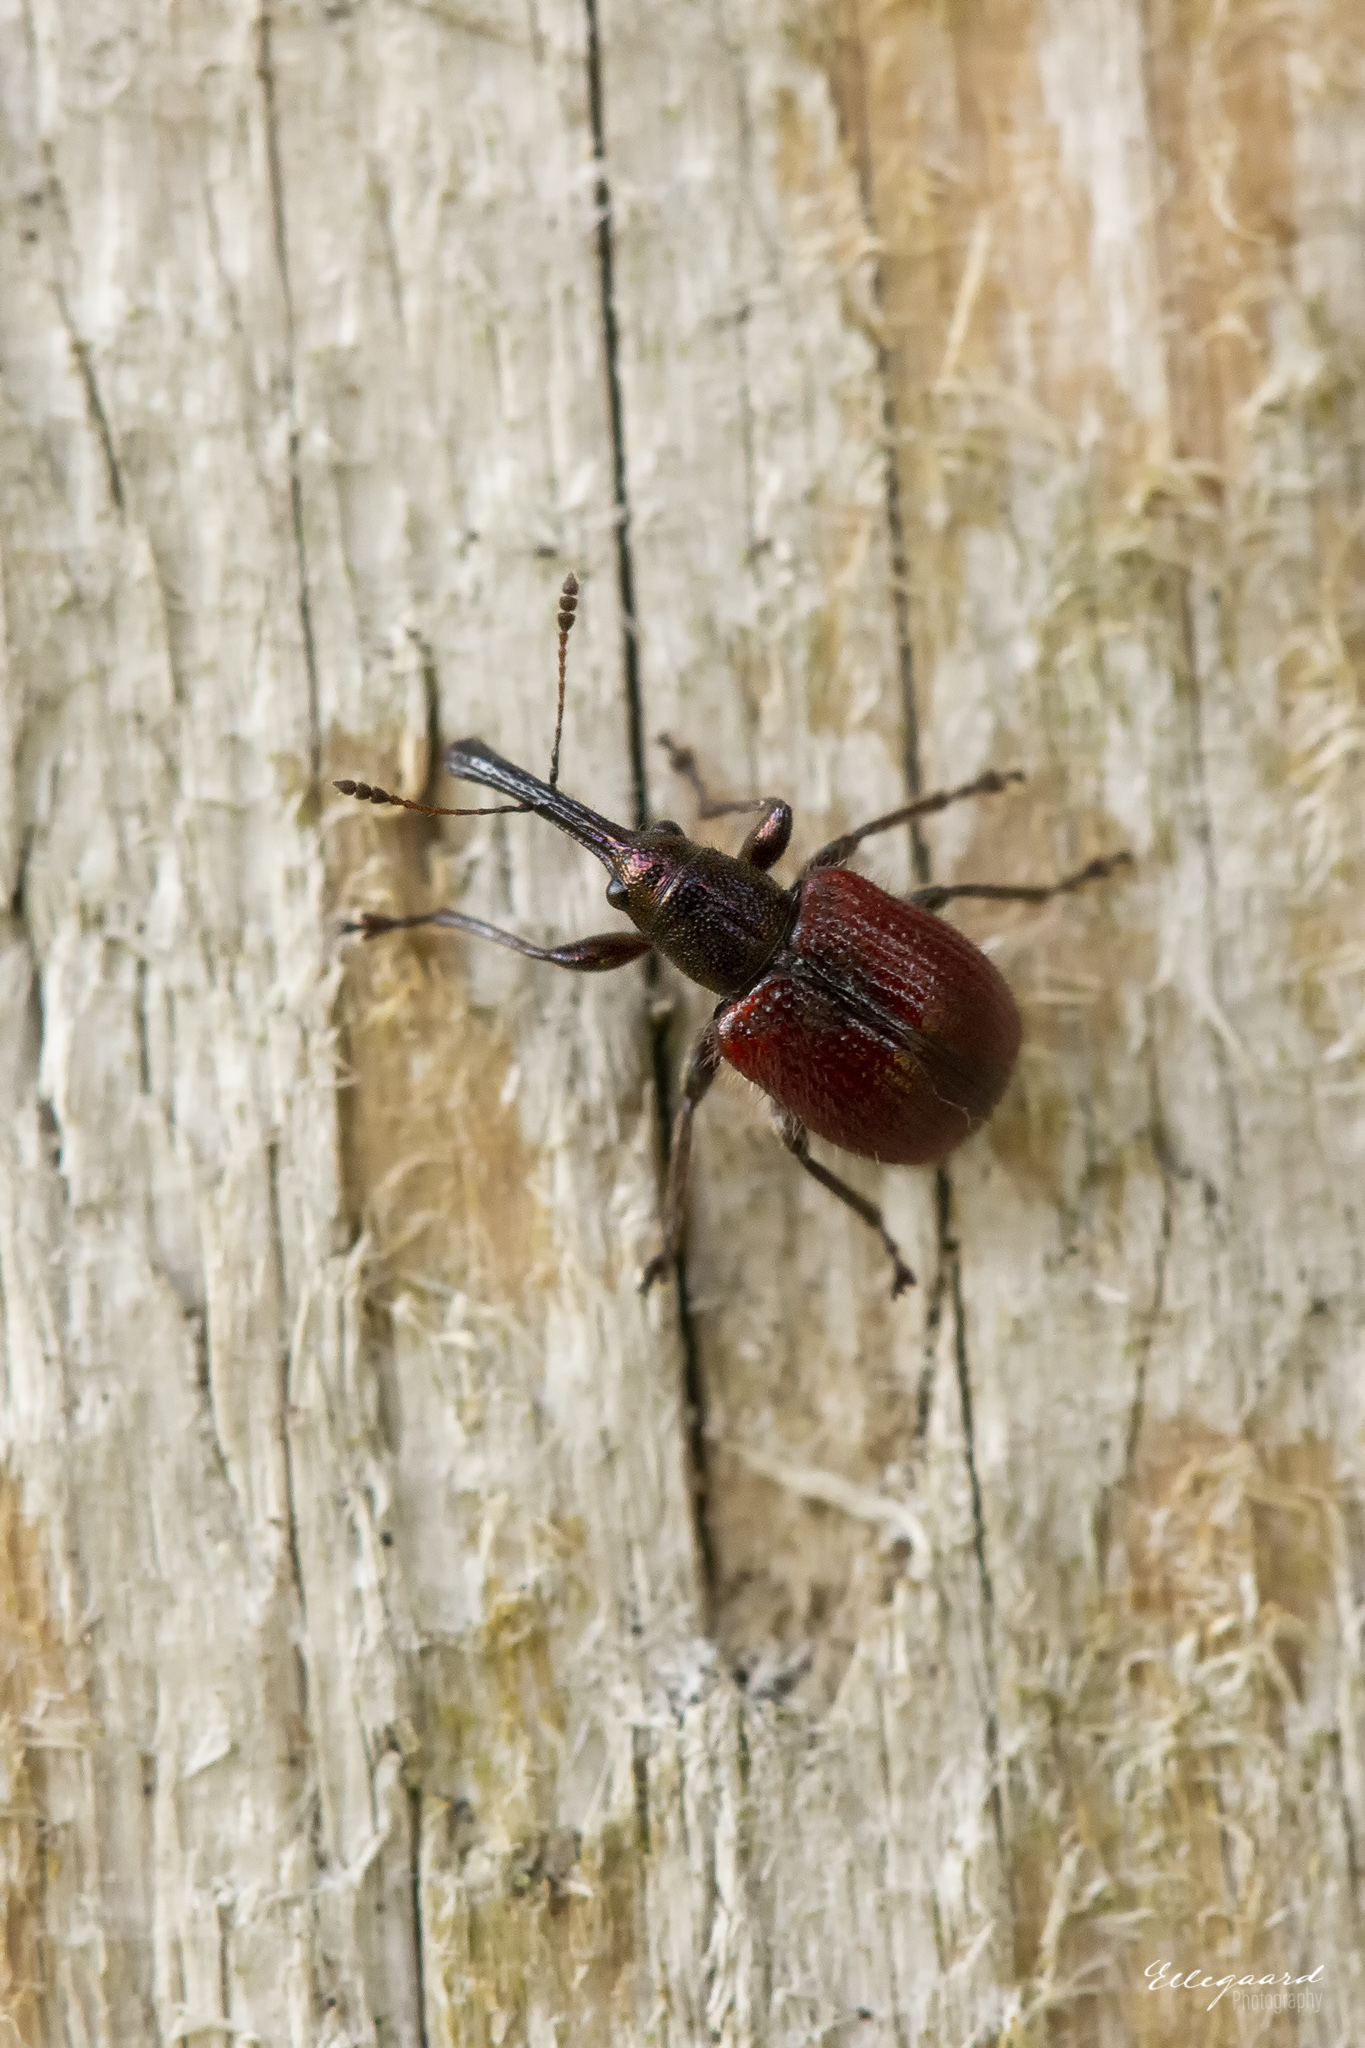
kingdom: Animalia
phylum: Arthropoda
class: Insecta
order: Coleoptera
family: Rhynchitidae
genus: Tatianaerhynchites
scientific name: Tatianaerhynchites aequatus
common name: Apple fruit rhynchites
